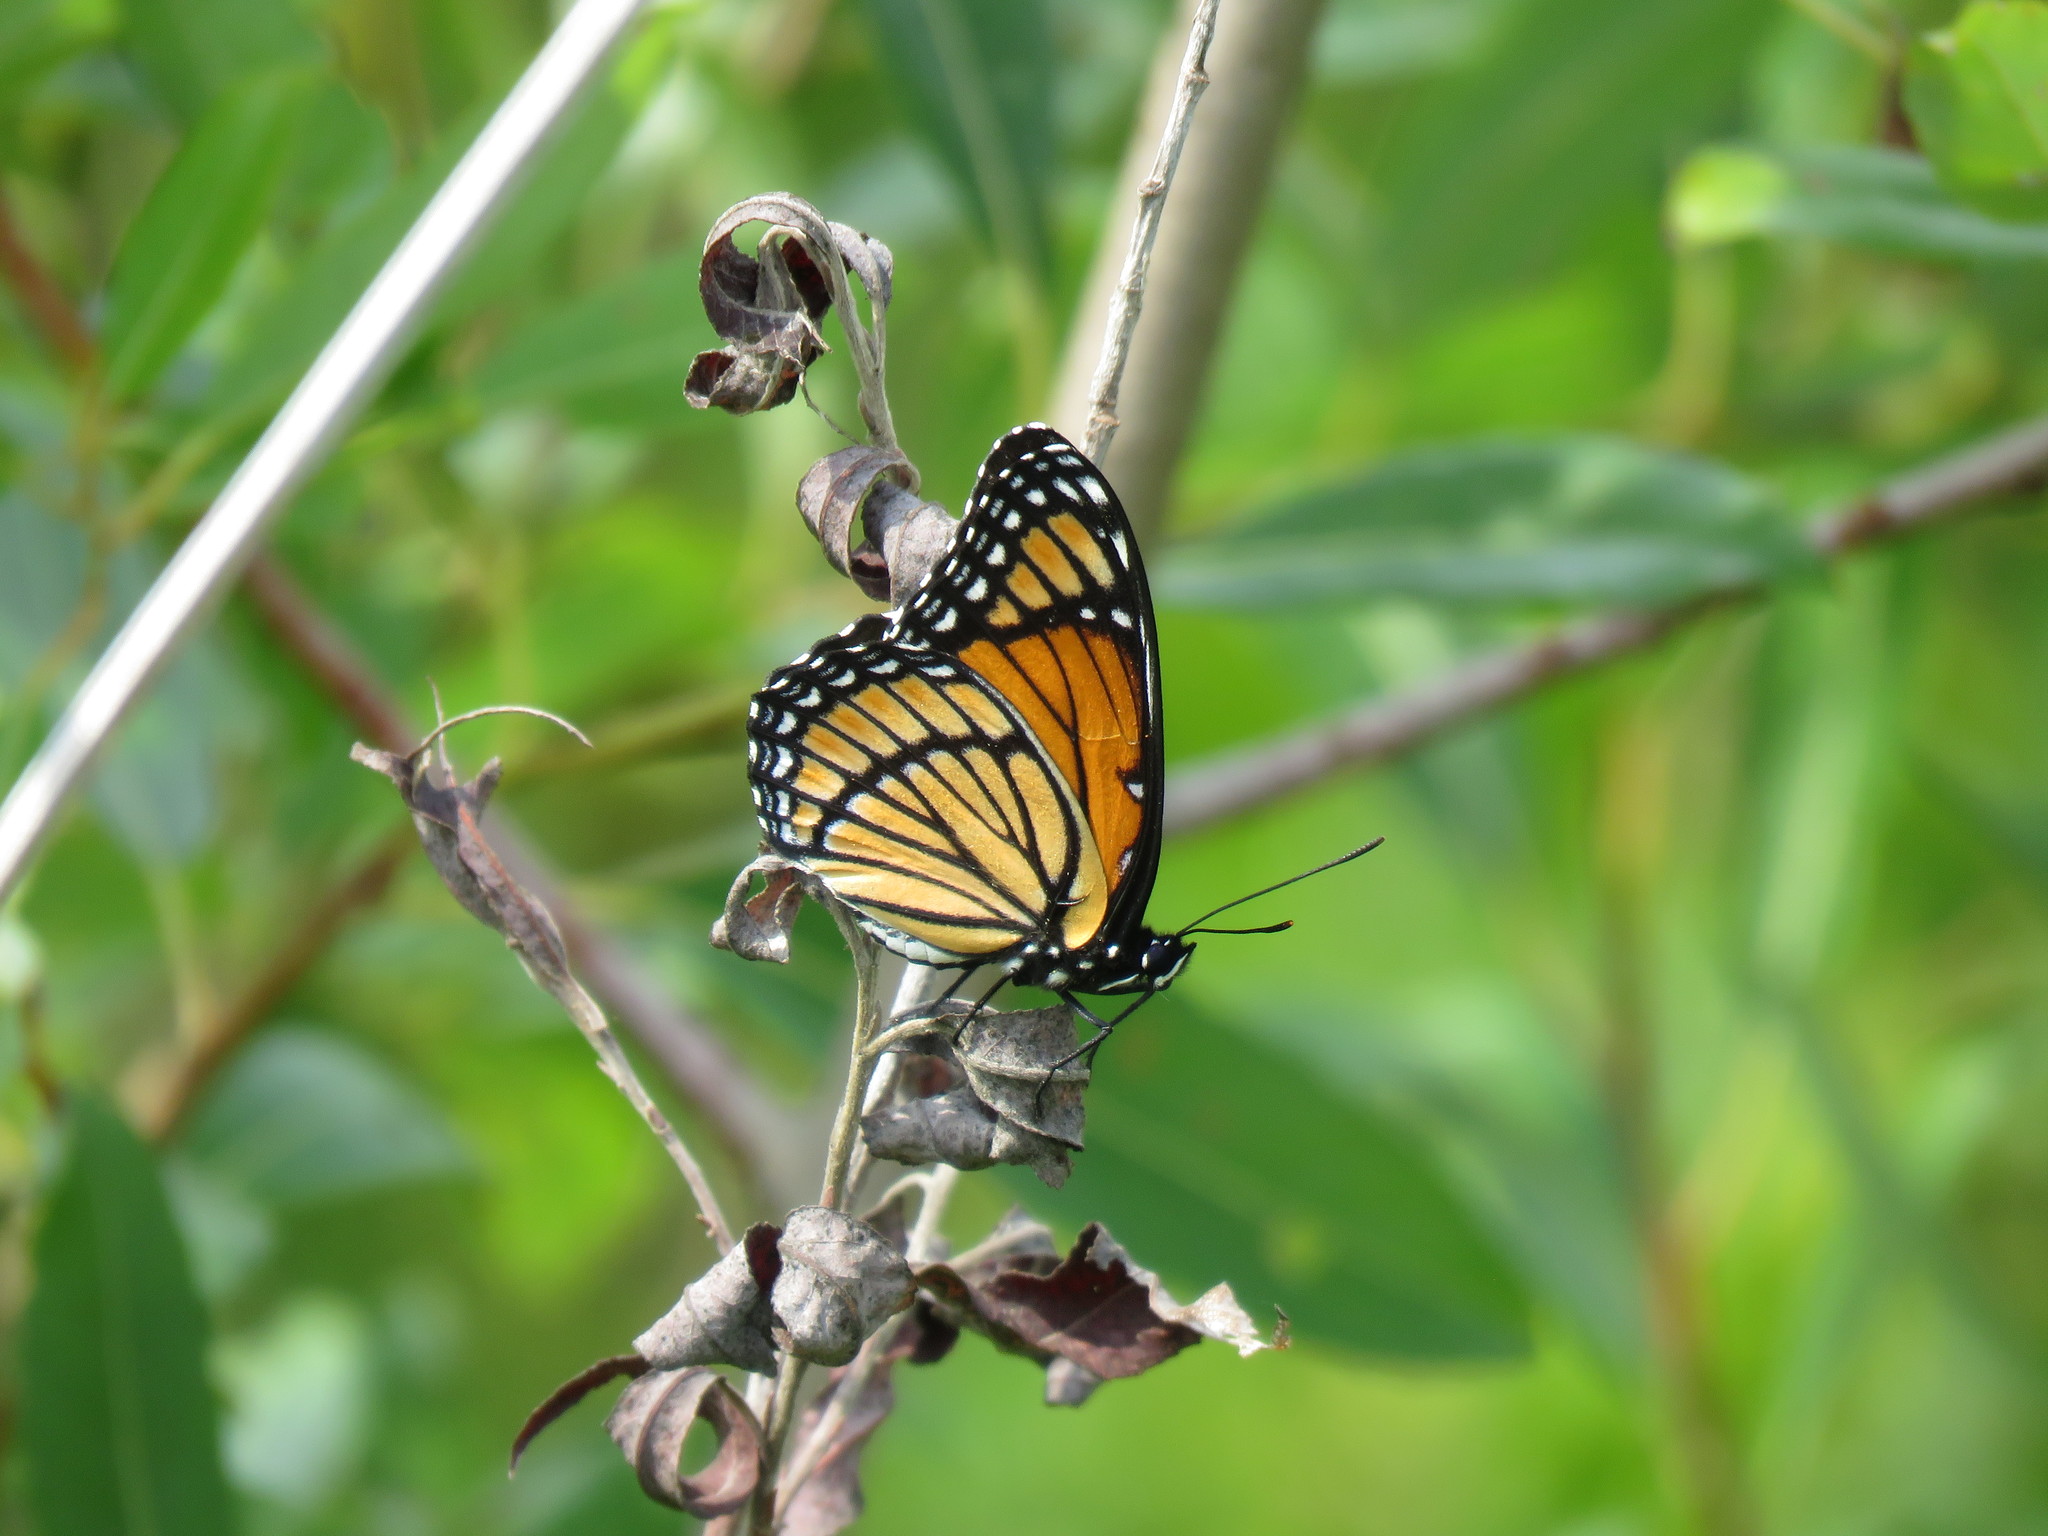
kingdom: Animalia
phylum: Arthropoda
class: Insecta
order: Lepidoptera
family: Nymphalidae
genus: Limenitis
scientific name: Limenitis archippus
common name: Viceroy
